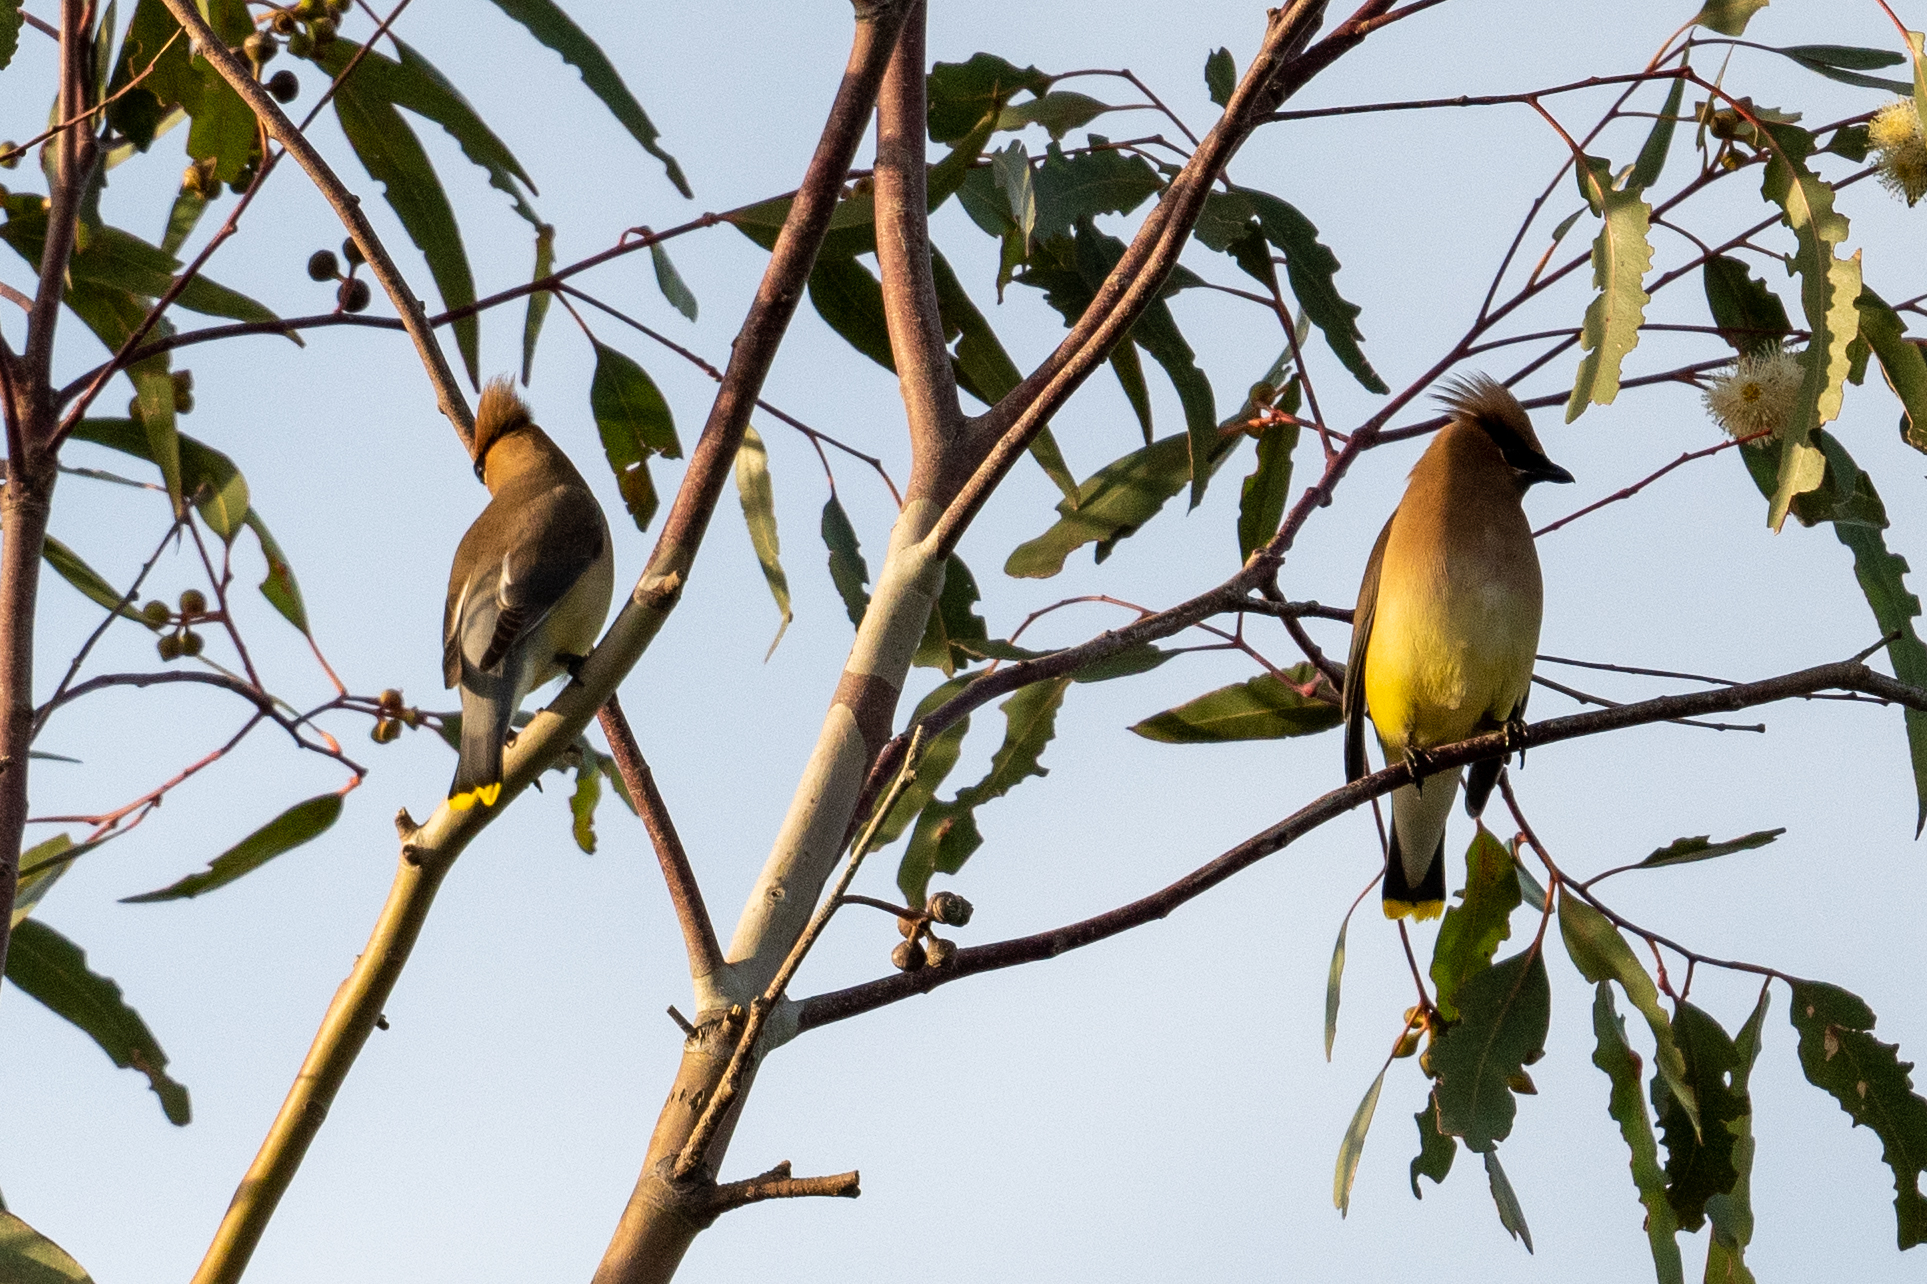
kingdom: Animalia
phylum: Chordata
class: Aves
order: Passeriformes
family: Bombycillidae
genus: Bombycilla
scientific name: Bombycilla cedrorum
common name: Cedar waxwing
